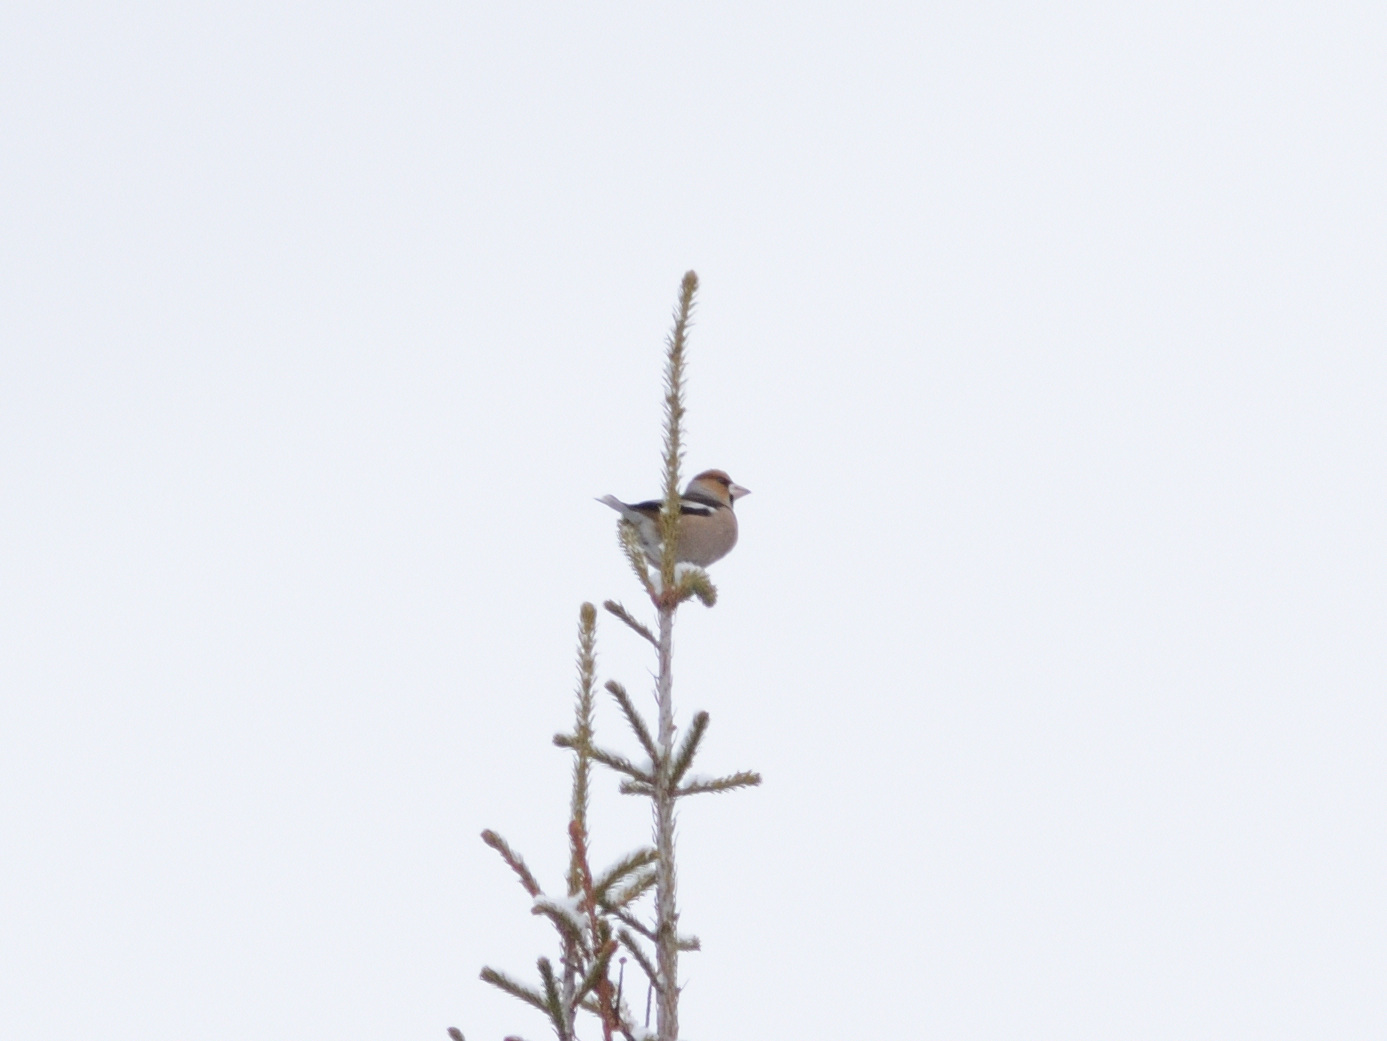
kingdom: Animalia
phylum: Chordata
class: Aves
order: Passeriformes
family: Fringillidae
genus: Coccothraustes
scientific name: Coccothraustes coccothraustes
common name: Hawfinch
